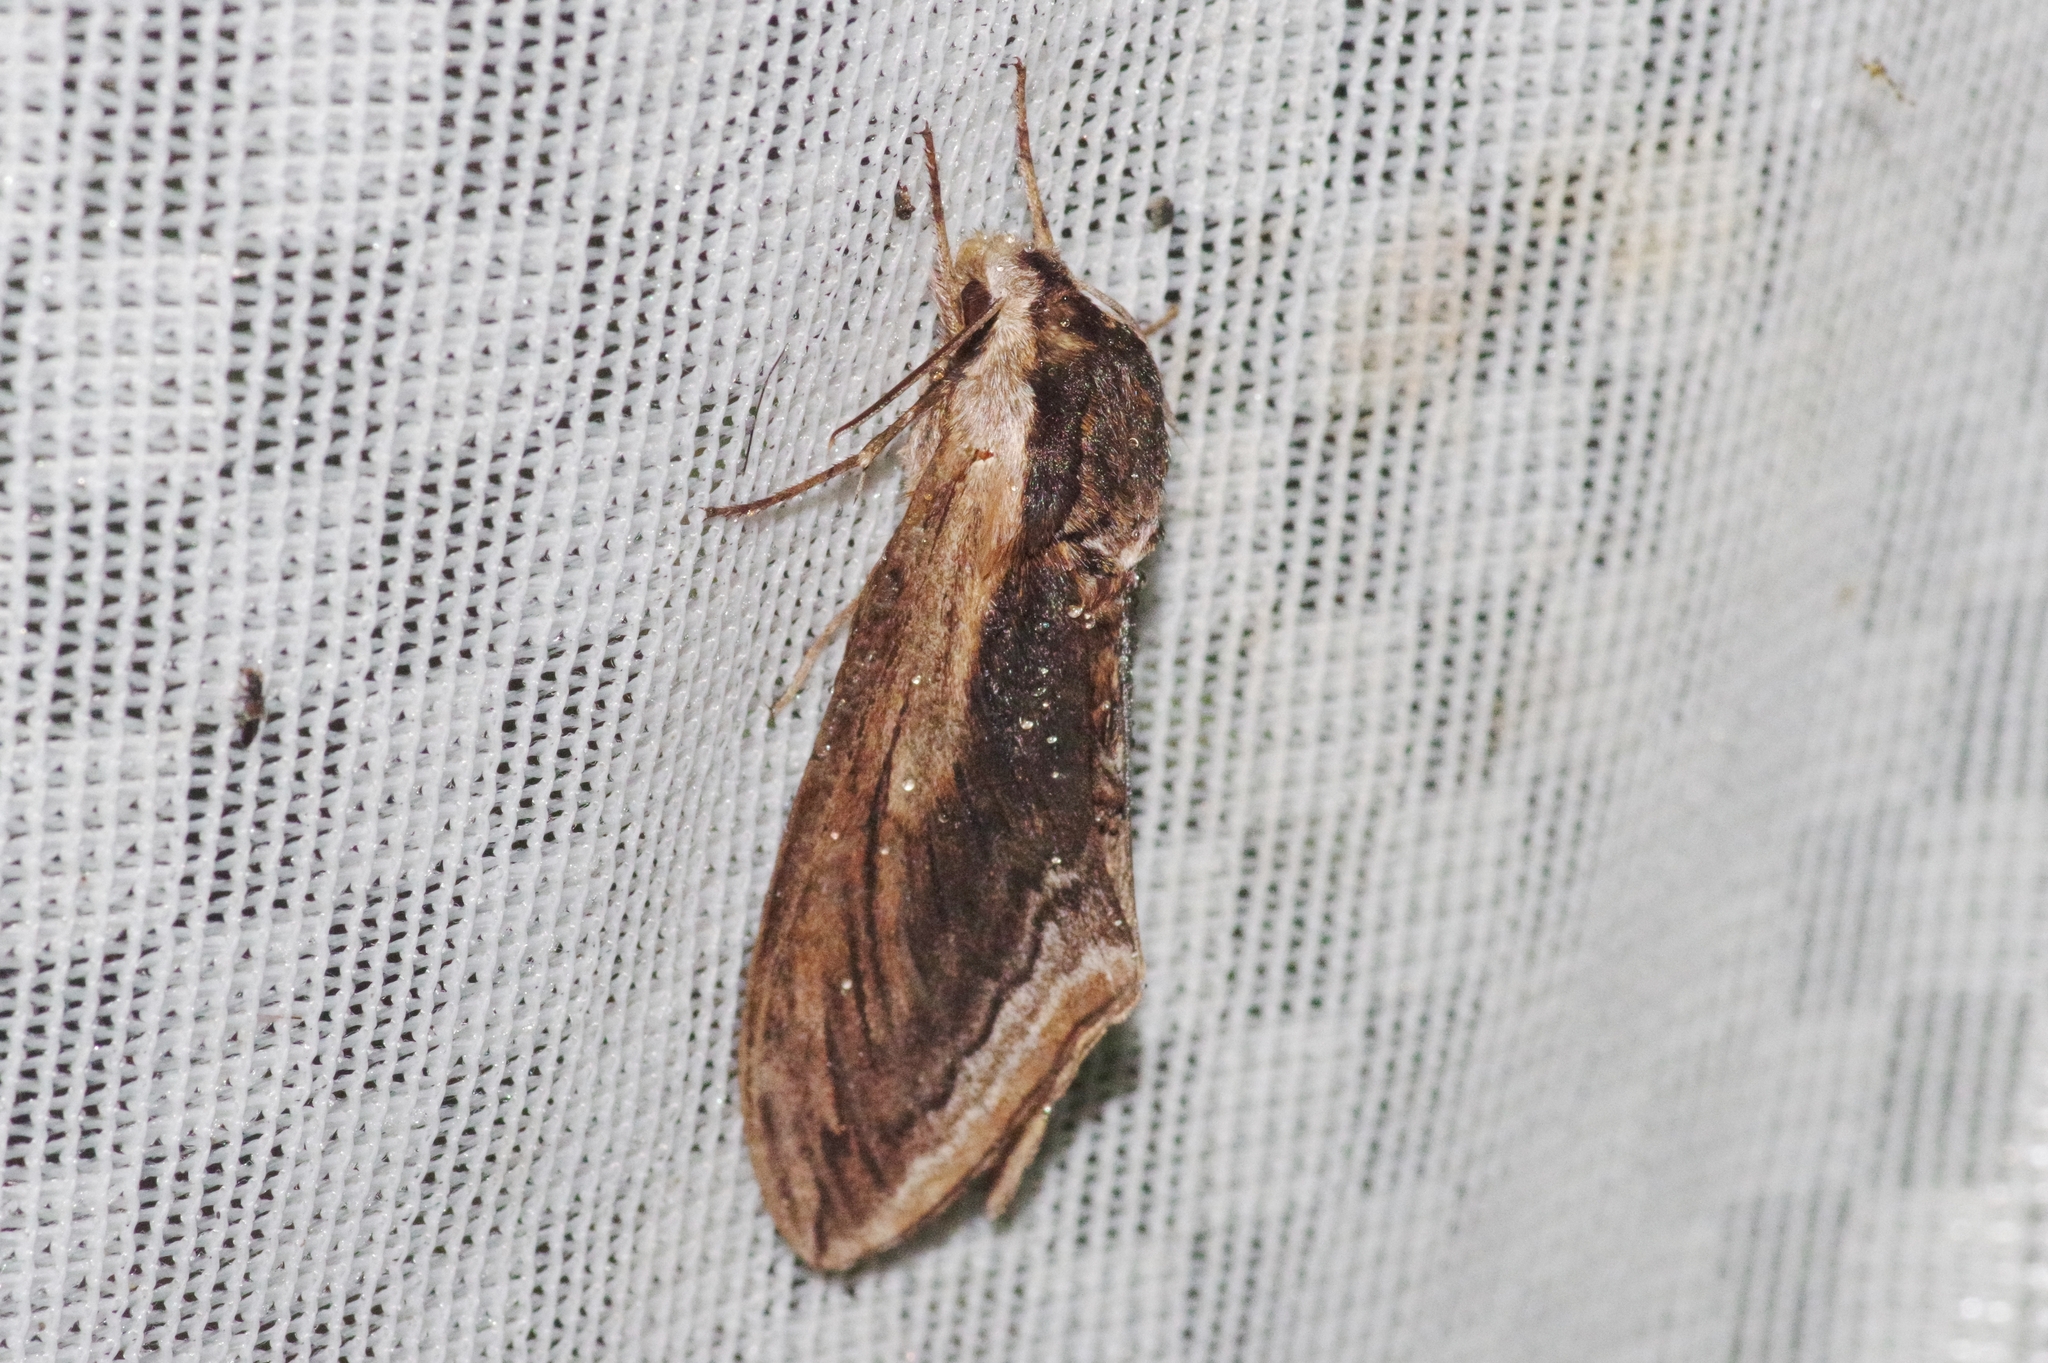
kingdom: Animalia
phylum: Arthropoda
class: Insecta
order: Lepidoptera
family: Sphingidae
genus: Sphinx
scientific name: Sphinx constricta
